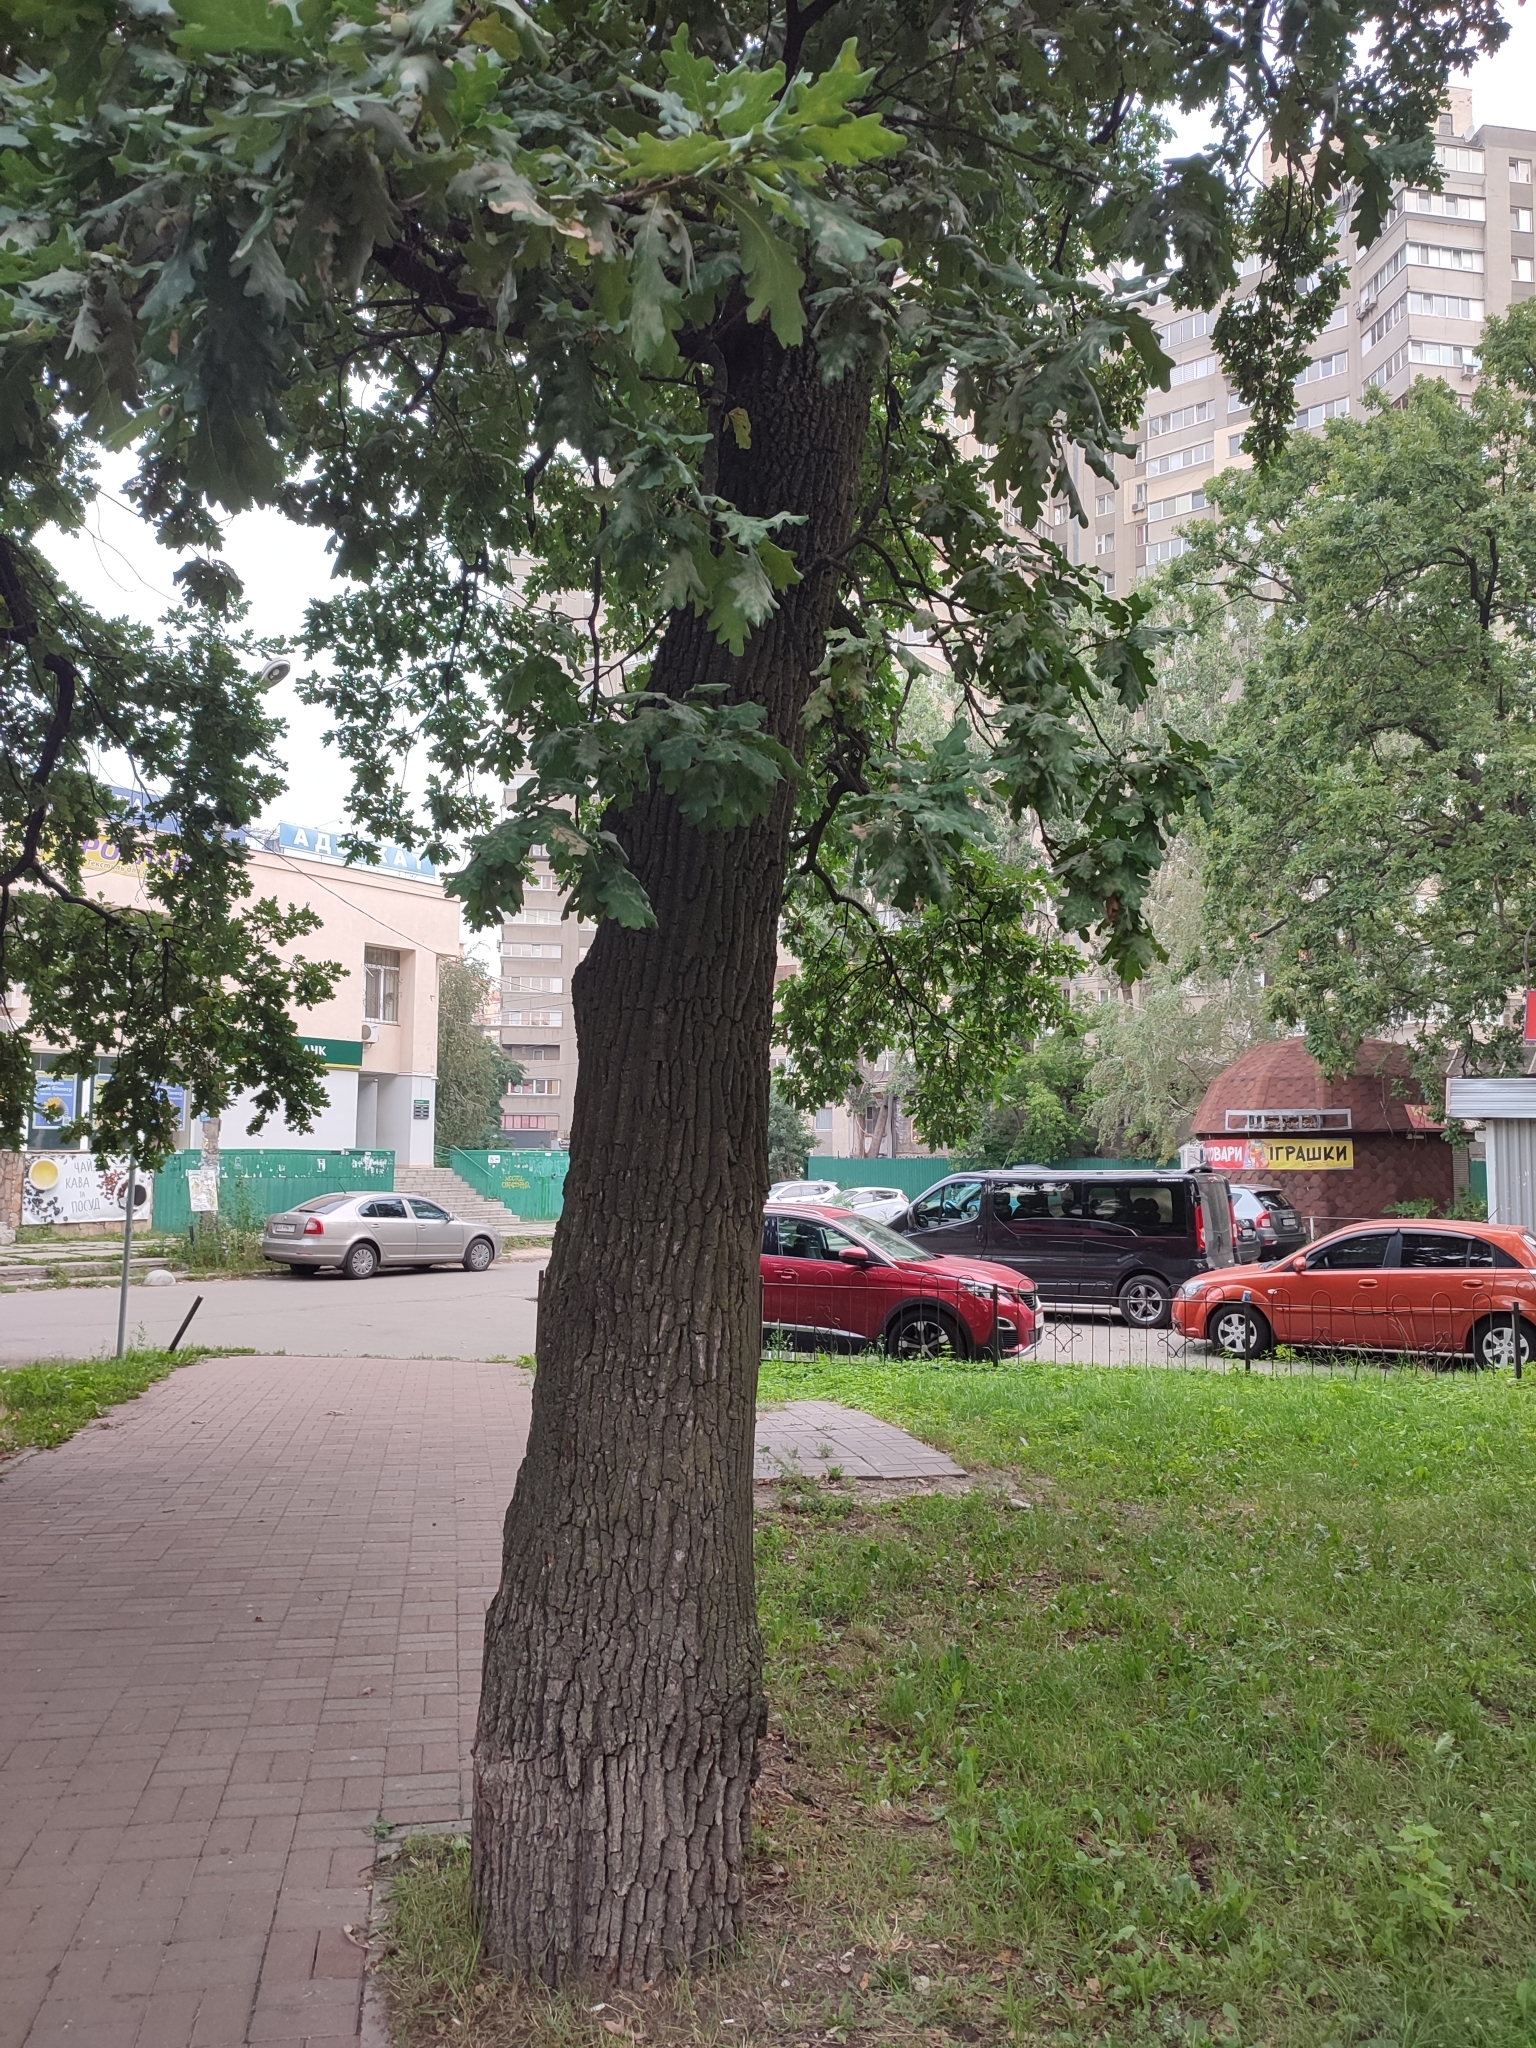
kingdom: Plantae
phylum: Tracheophyta
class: Magnoliopsida
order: Fagales
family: Fagaceae
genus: Quercus
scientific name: Quercus robur
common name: Pedunculate oak
